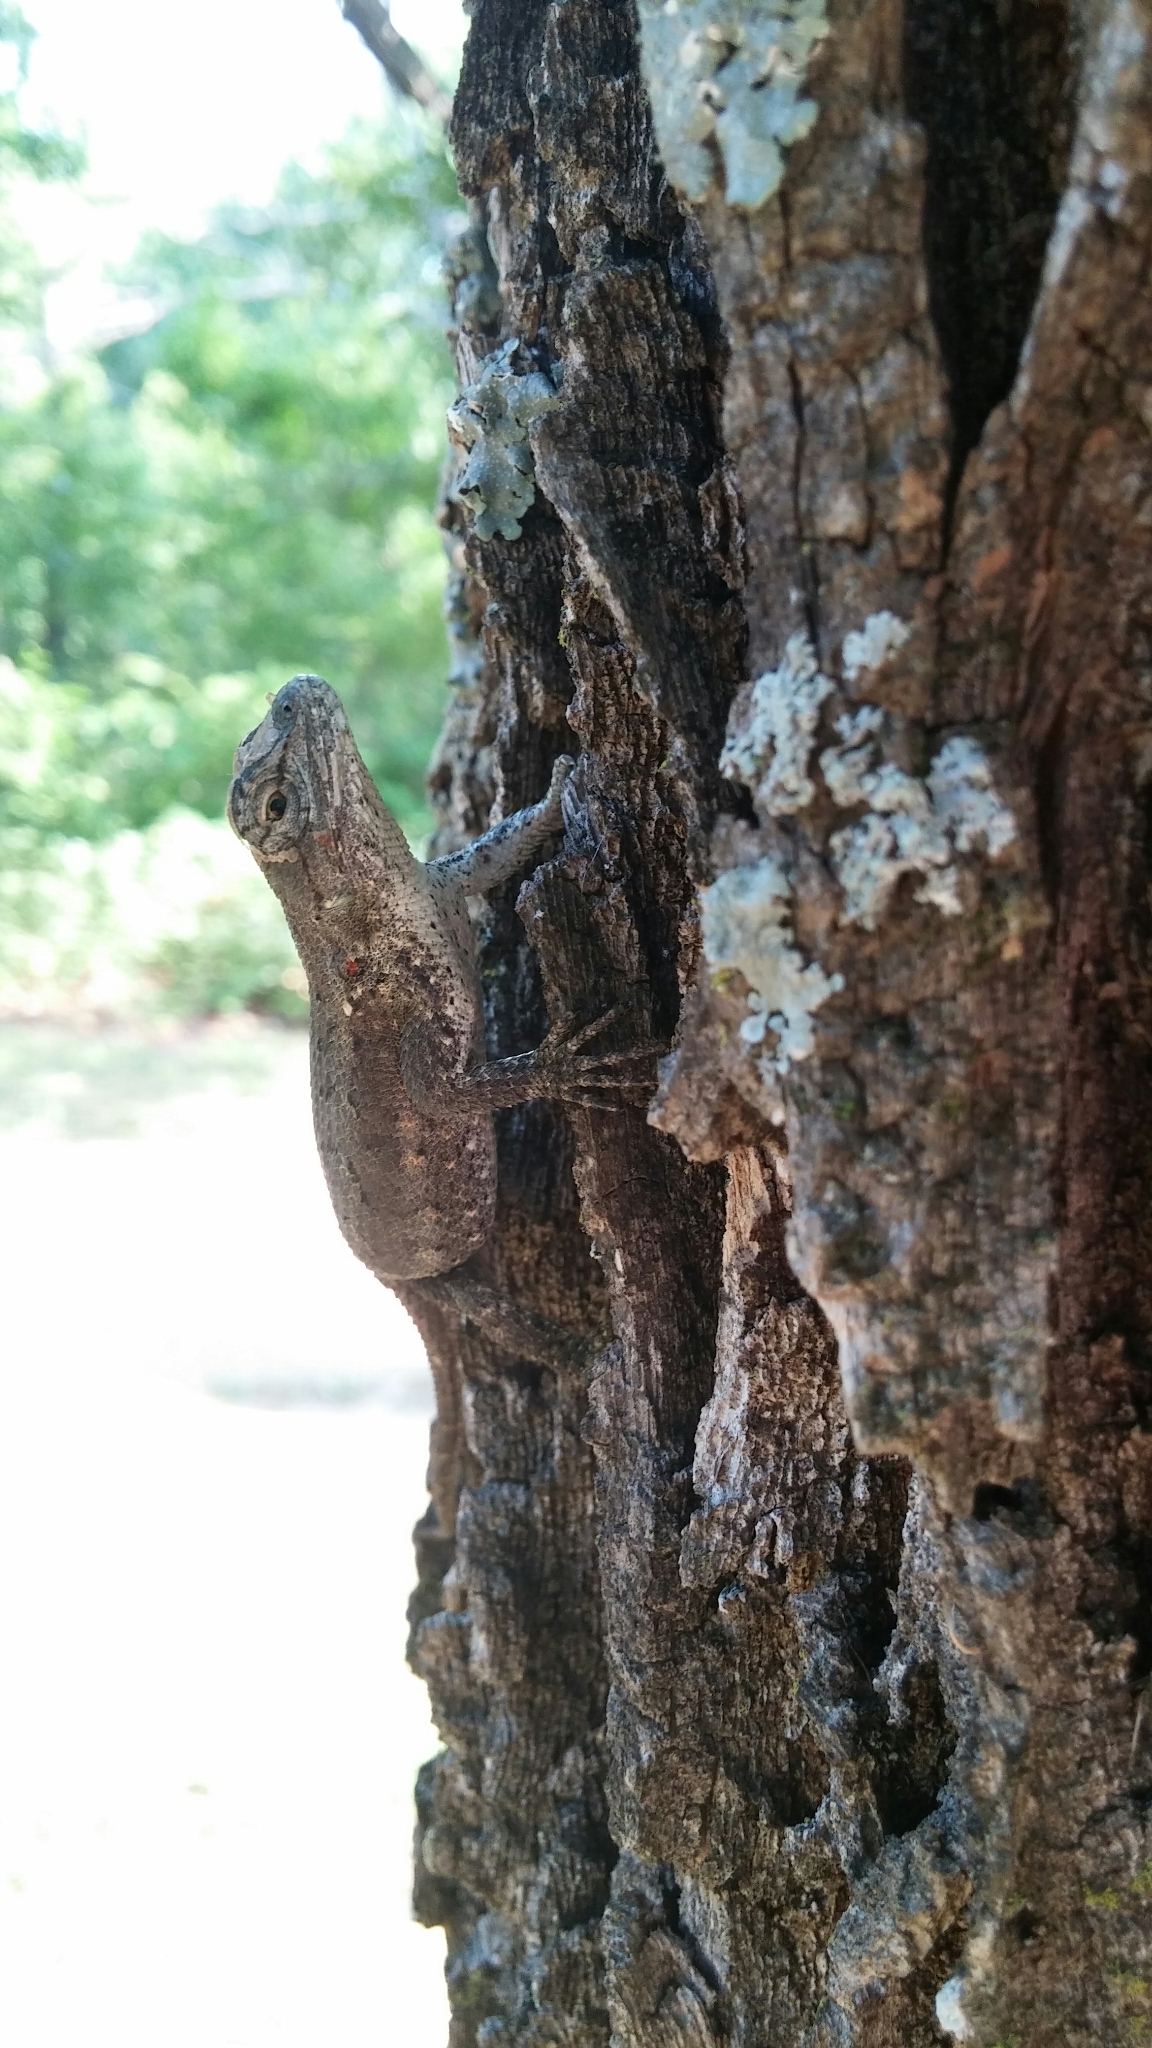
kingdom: Animalia
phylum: Chordata
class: Squamata
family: Phrynosomatidae
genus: Sceloporus
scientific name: Sceloporus consobrinus
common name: Southern prairie lizard
